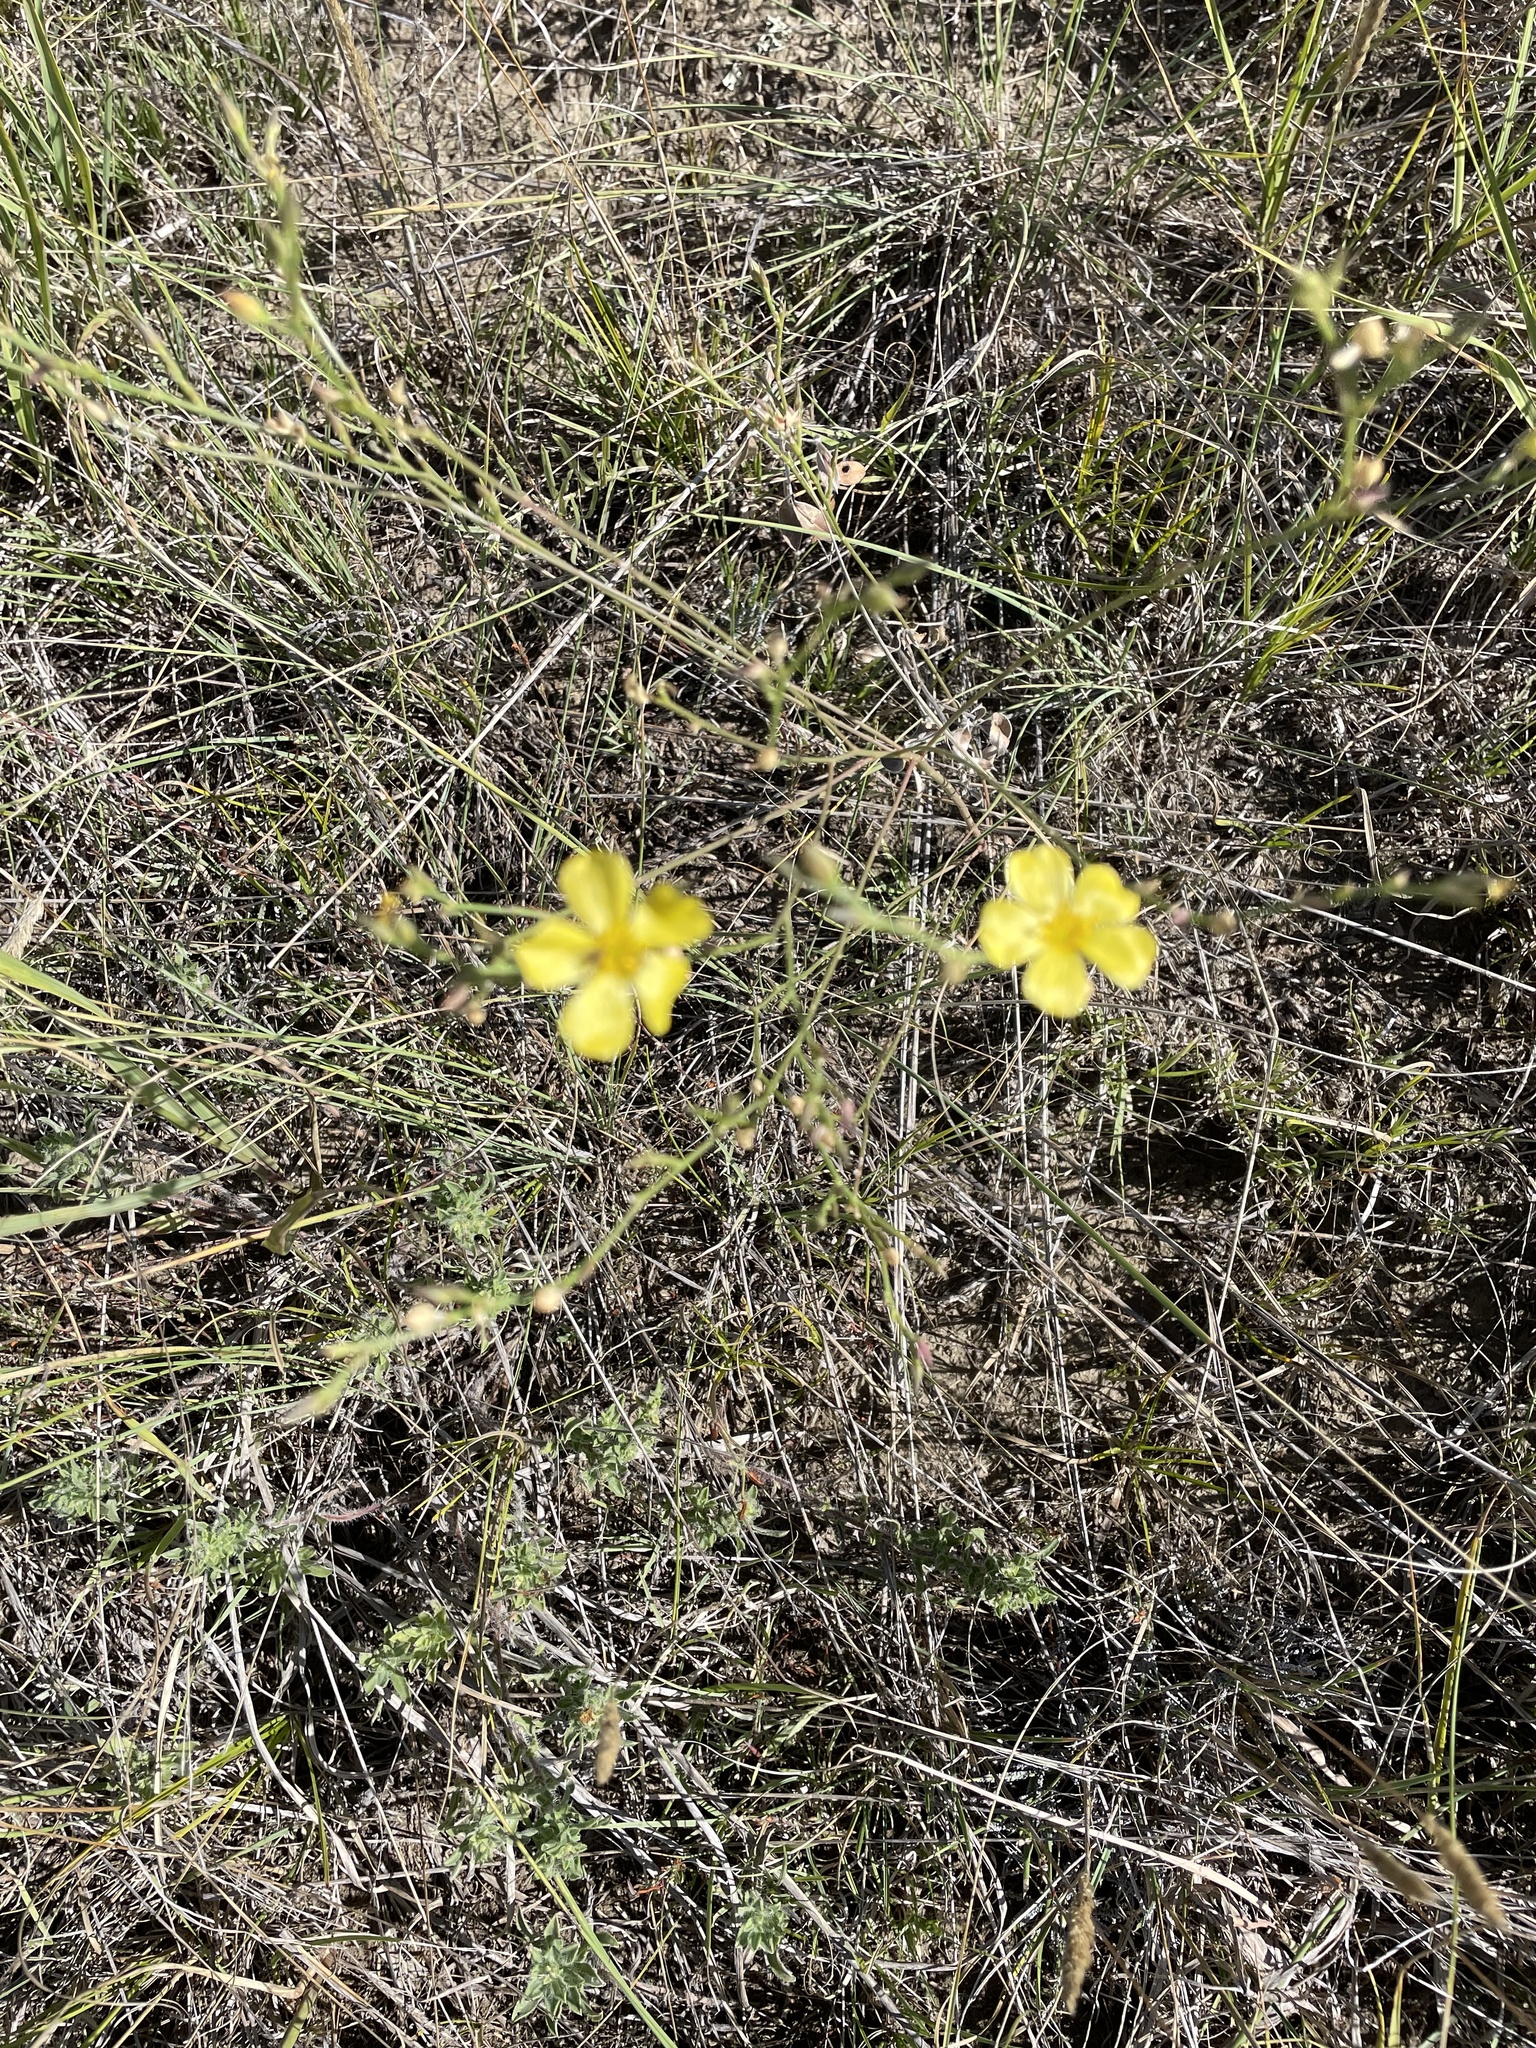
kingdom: Plantae
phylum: Tracheophyta
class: Magnoliopsida
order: Malpighiales
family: Linaceae
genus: Linum
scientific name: Linum rigidum
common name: Stiff-stem flax
